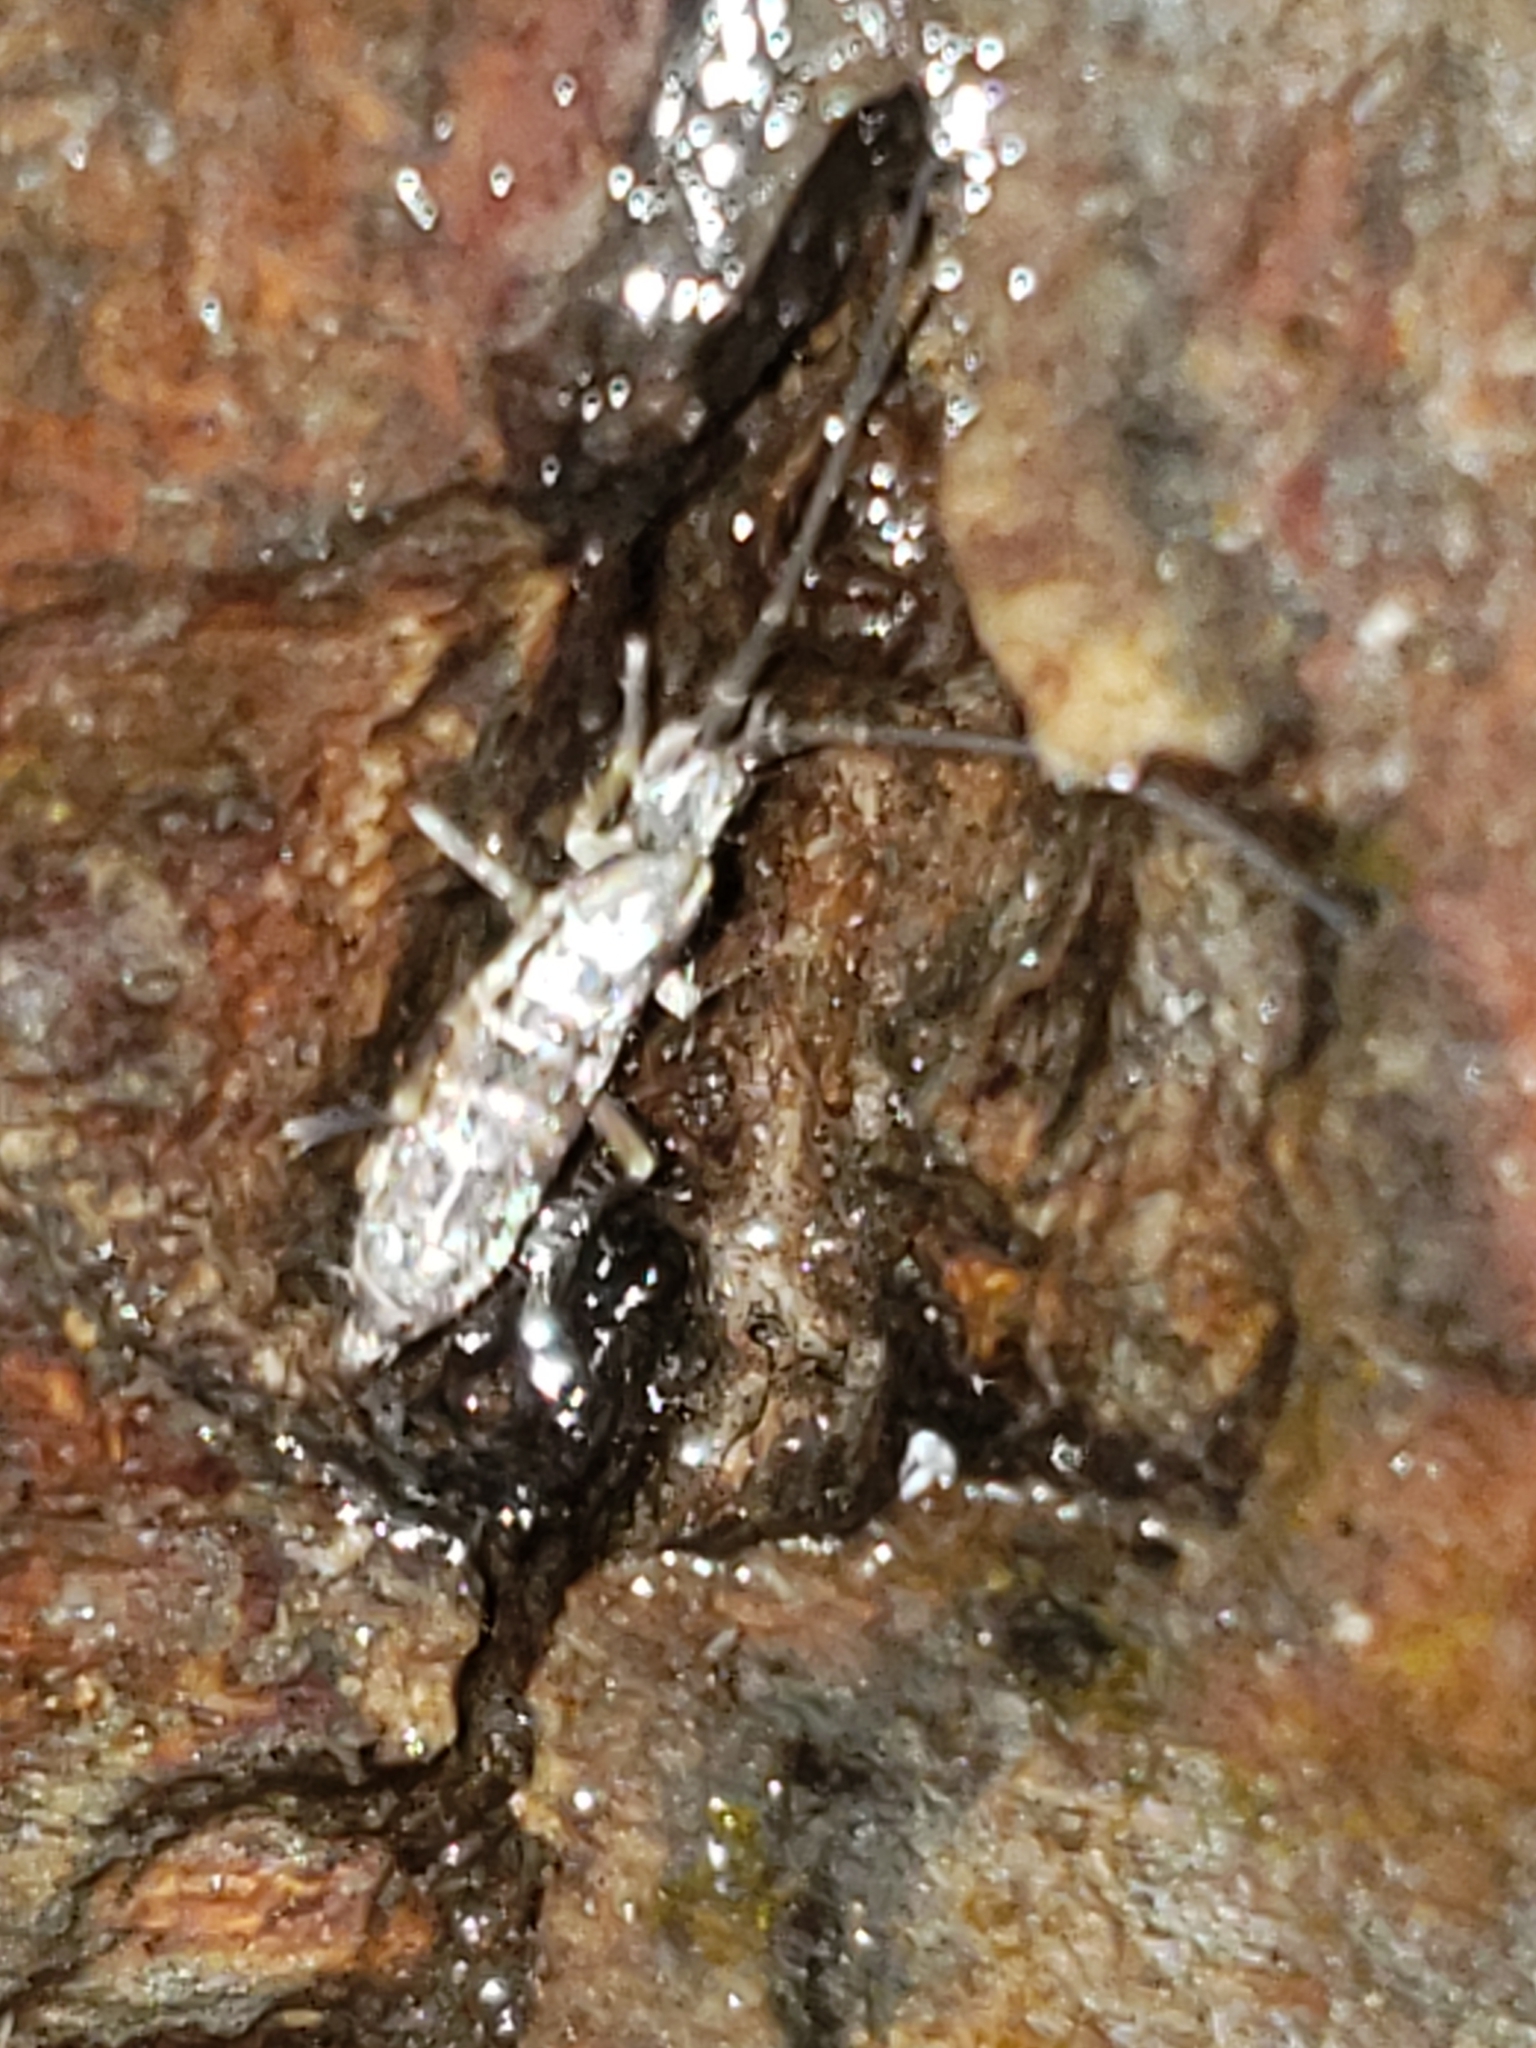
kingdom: Animalia
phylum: Arthropoda
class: Collembola
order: Entomobryomorpha
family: Tomoceridae
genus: Pogonognathellus
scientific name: Pogonognathellus elongatus
